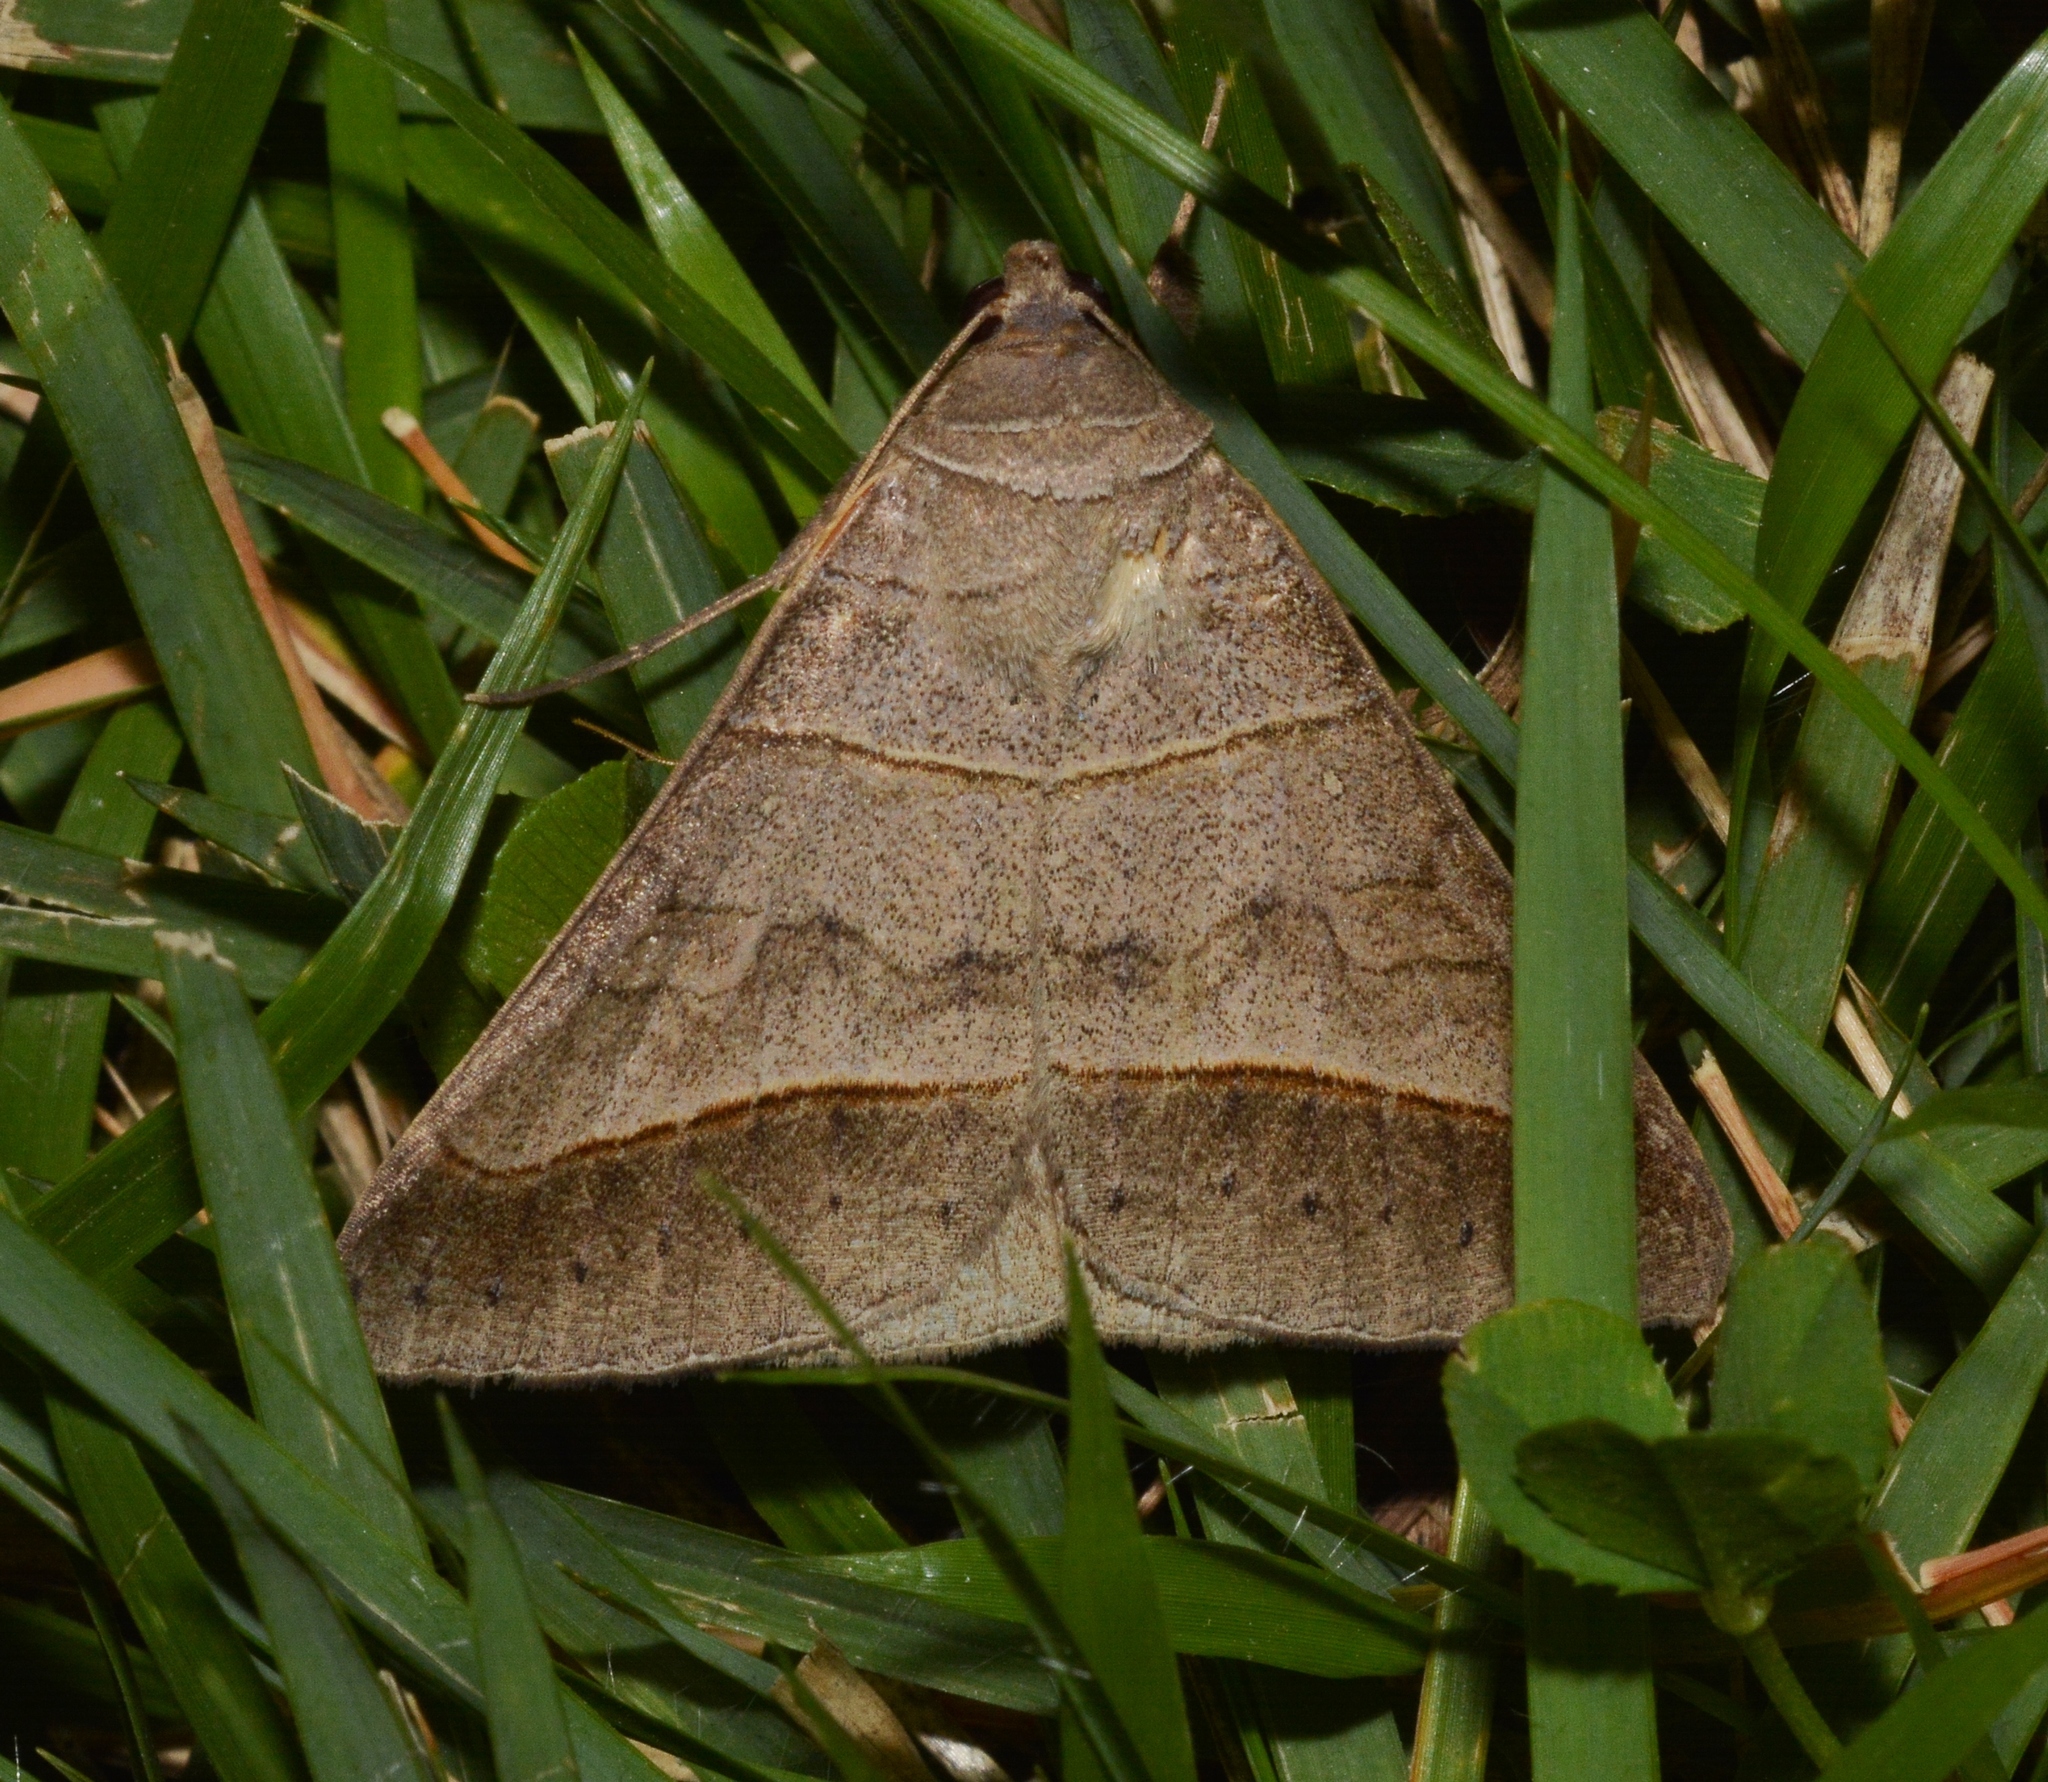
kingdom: Animalia
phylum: Arthropoda
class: Insecta
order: Lepidoptera
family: Erebidae
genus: Mocis
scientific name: Mocis texana
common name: Texas mocis moth
